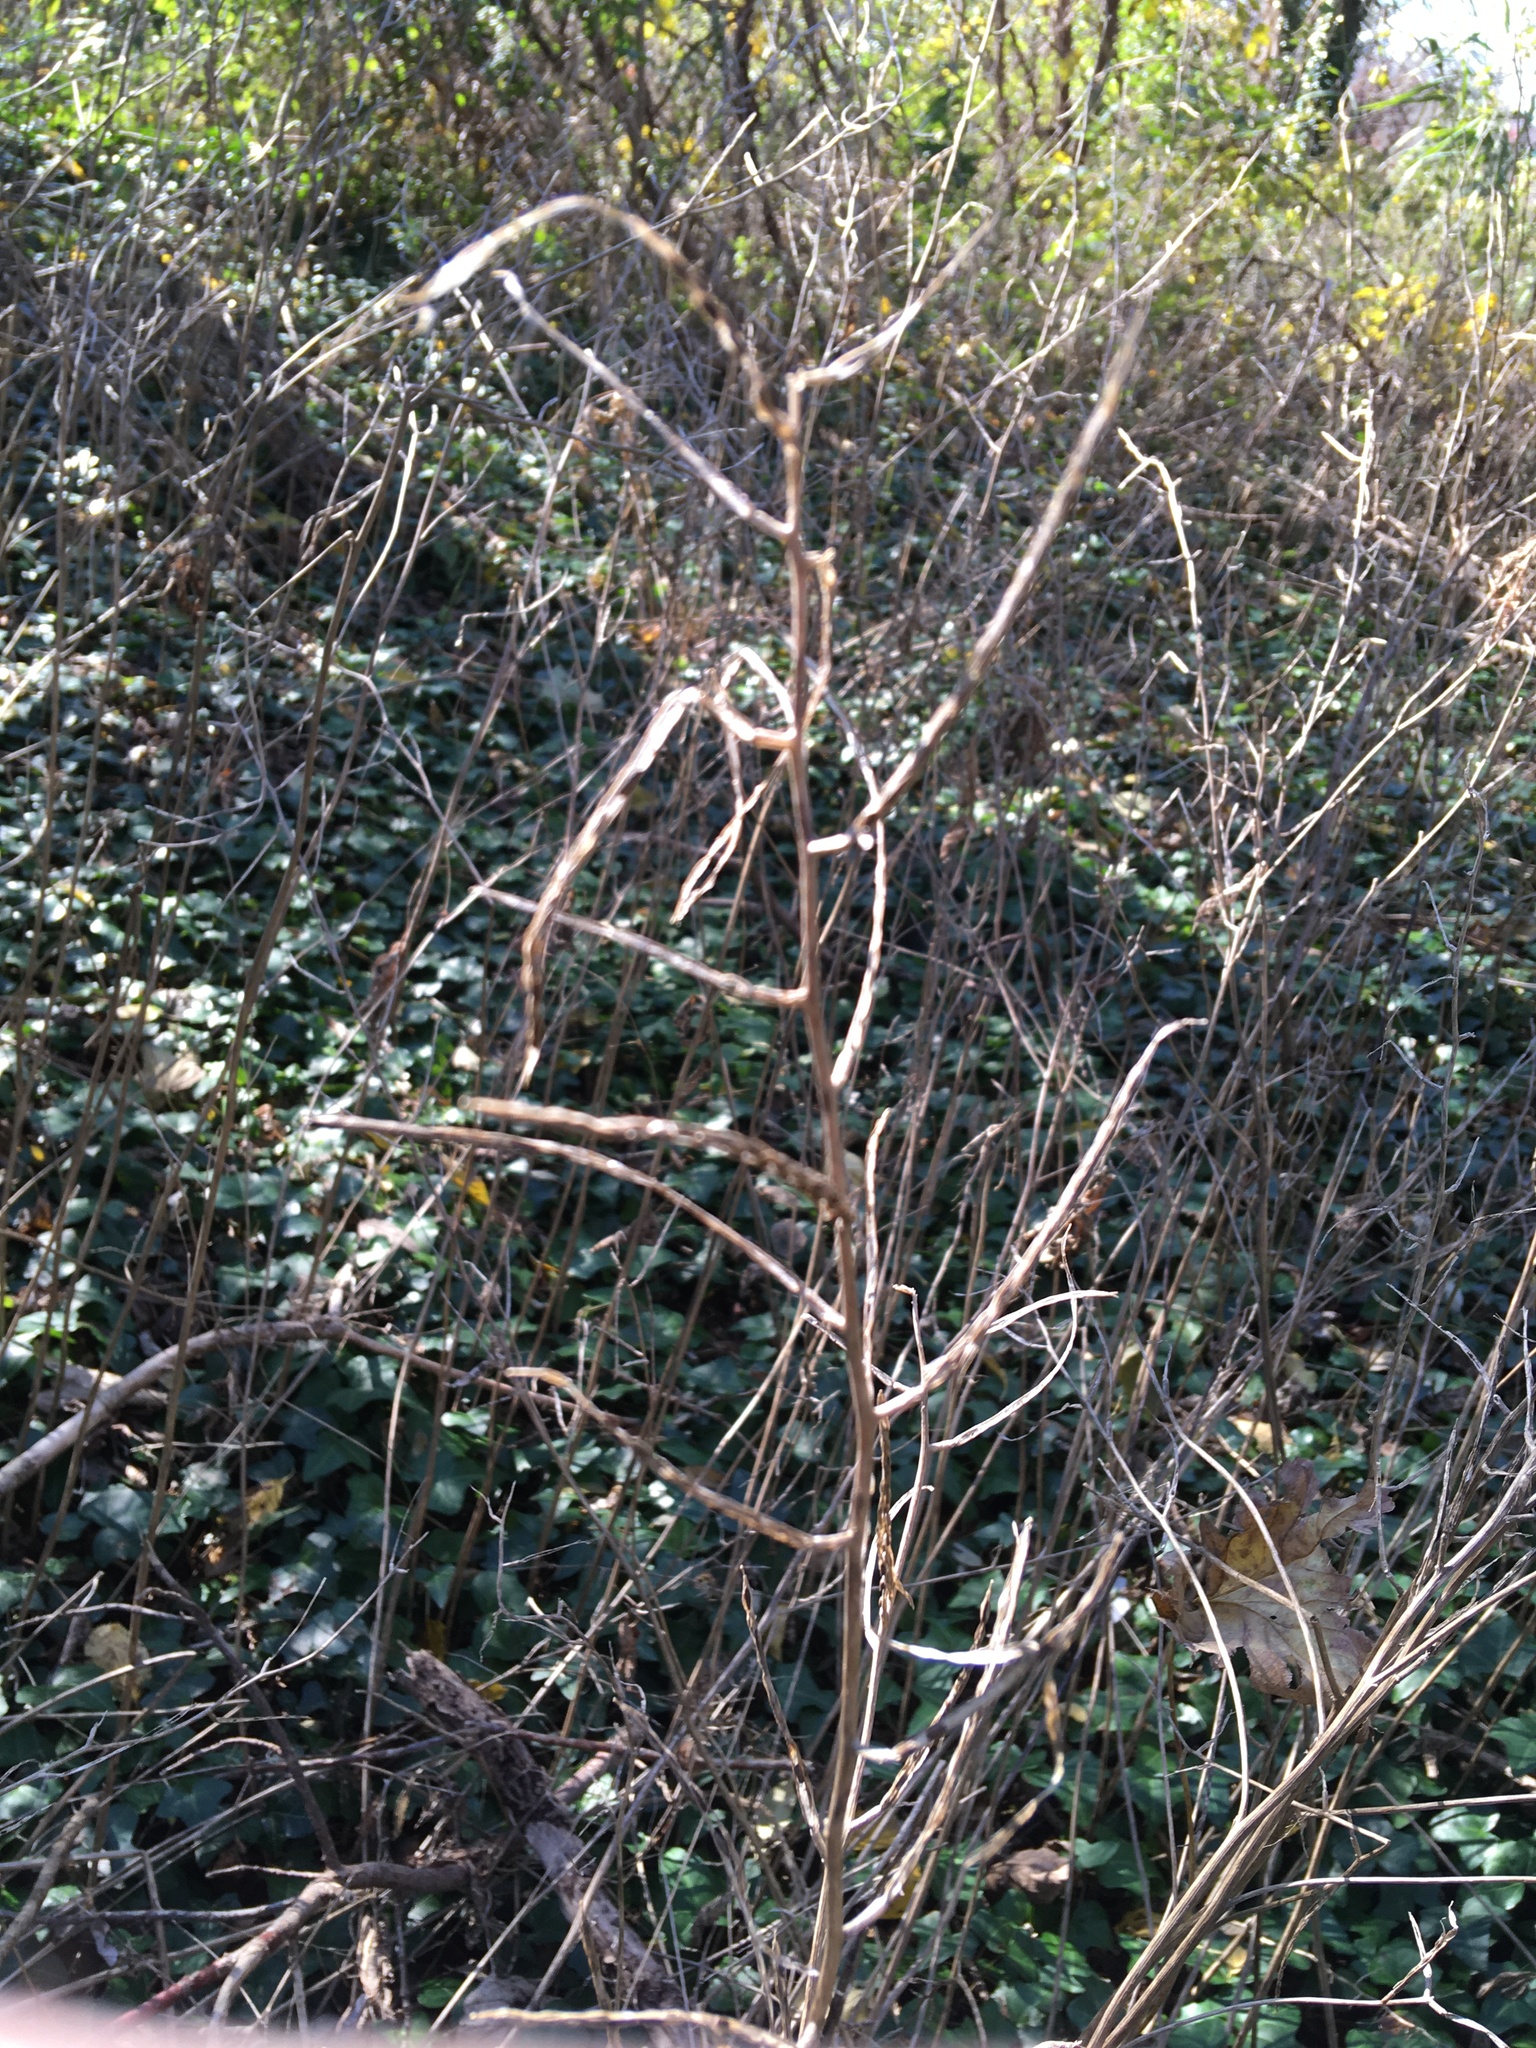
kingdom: Plantae
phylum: Tracheophyta
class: Magnoliopsida
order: Brassicales
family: Brassicaceae
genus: Alliaria
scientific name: Alliaria petiolata
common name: Garlic mustard
